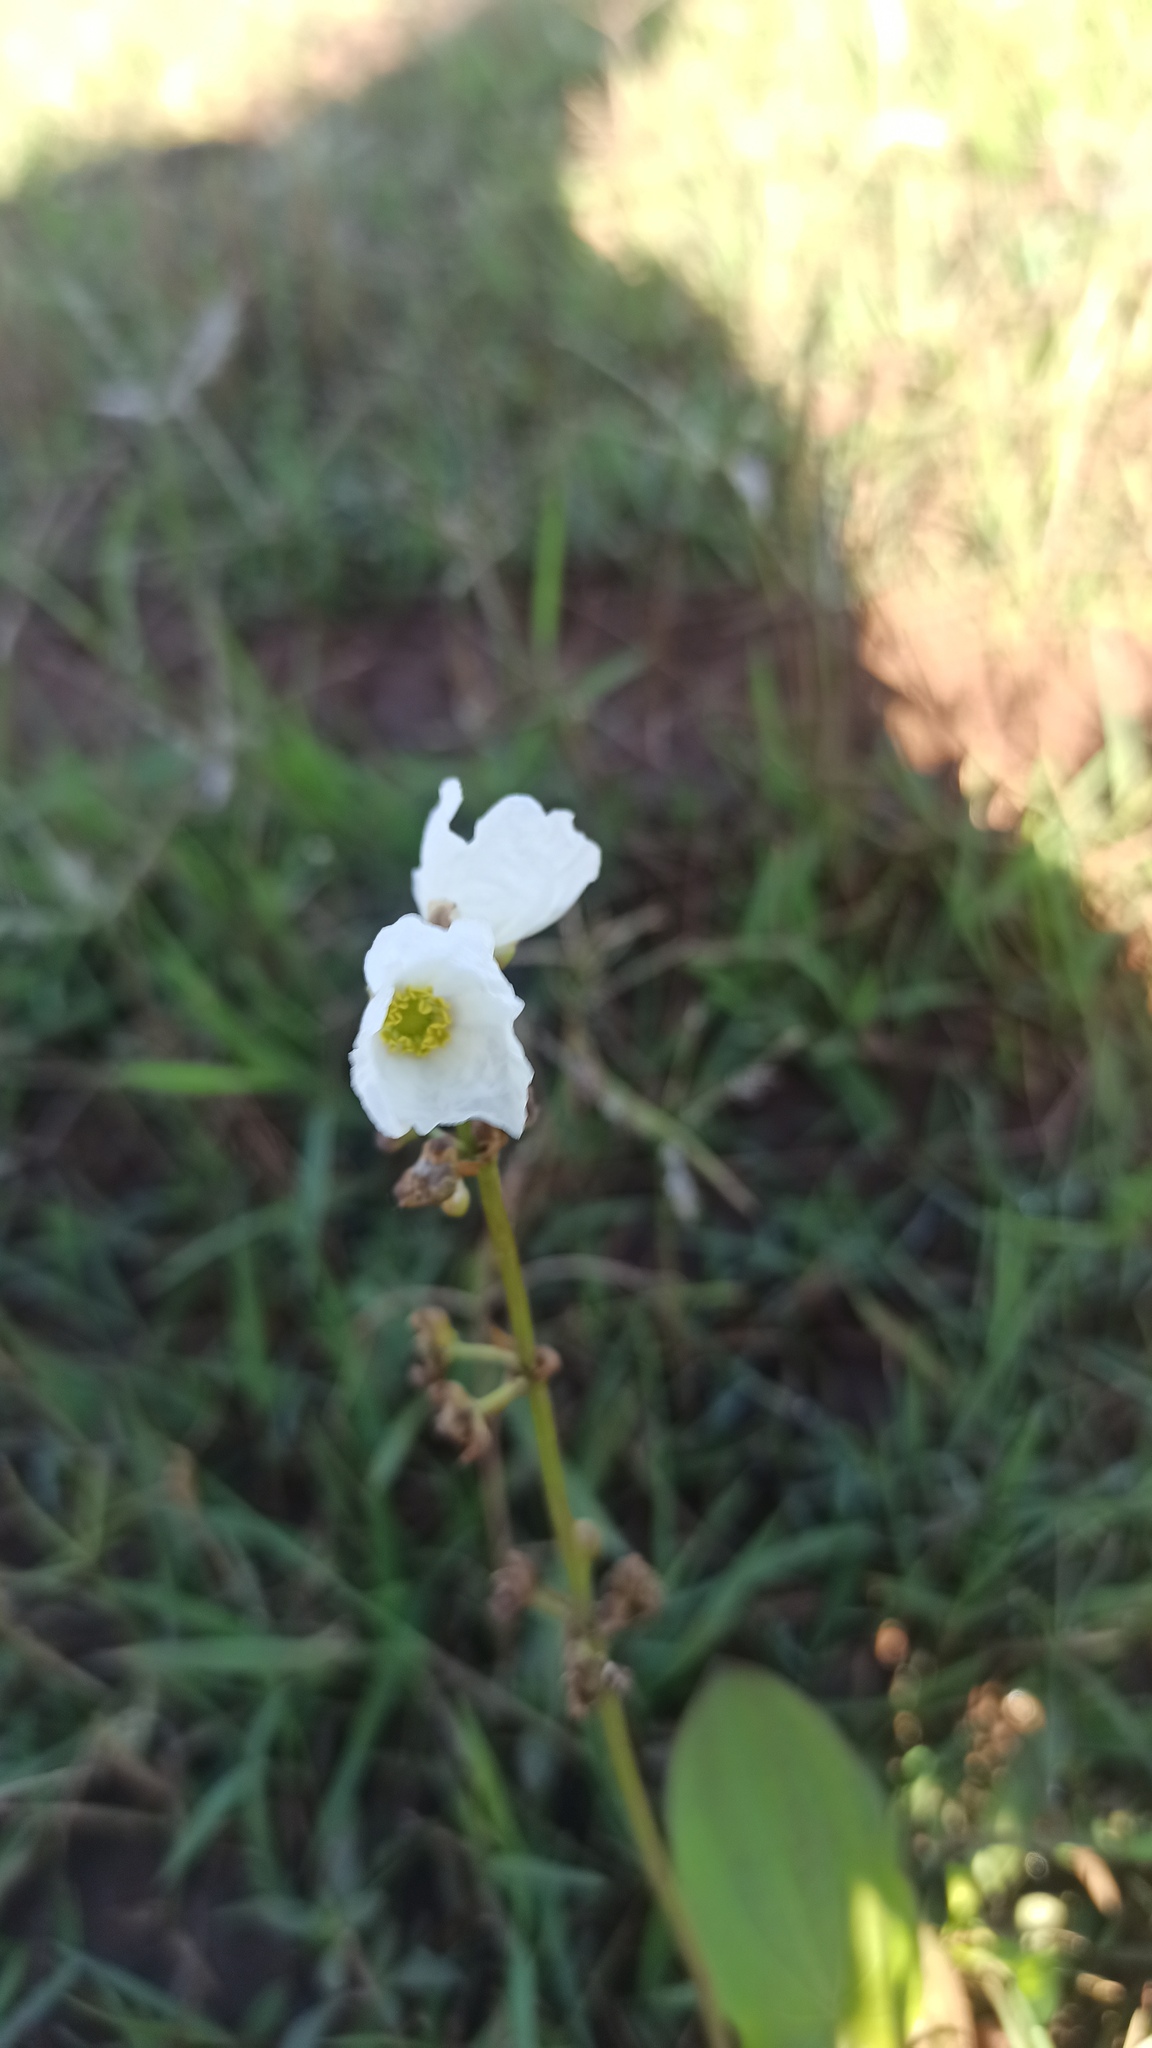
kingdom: Plantae
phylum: Tracheophyta
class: Liliopsida
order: Alismatales
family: Alismataceae
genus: Aquarius
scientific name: Aquarius longiscapus
